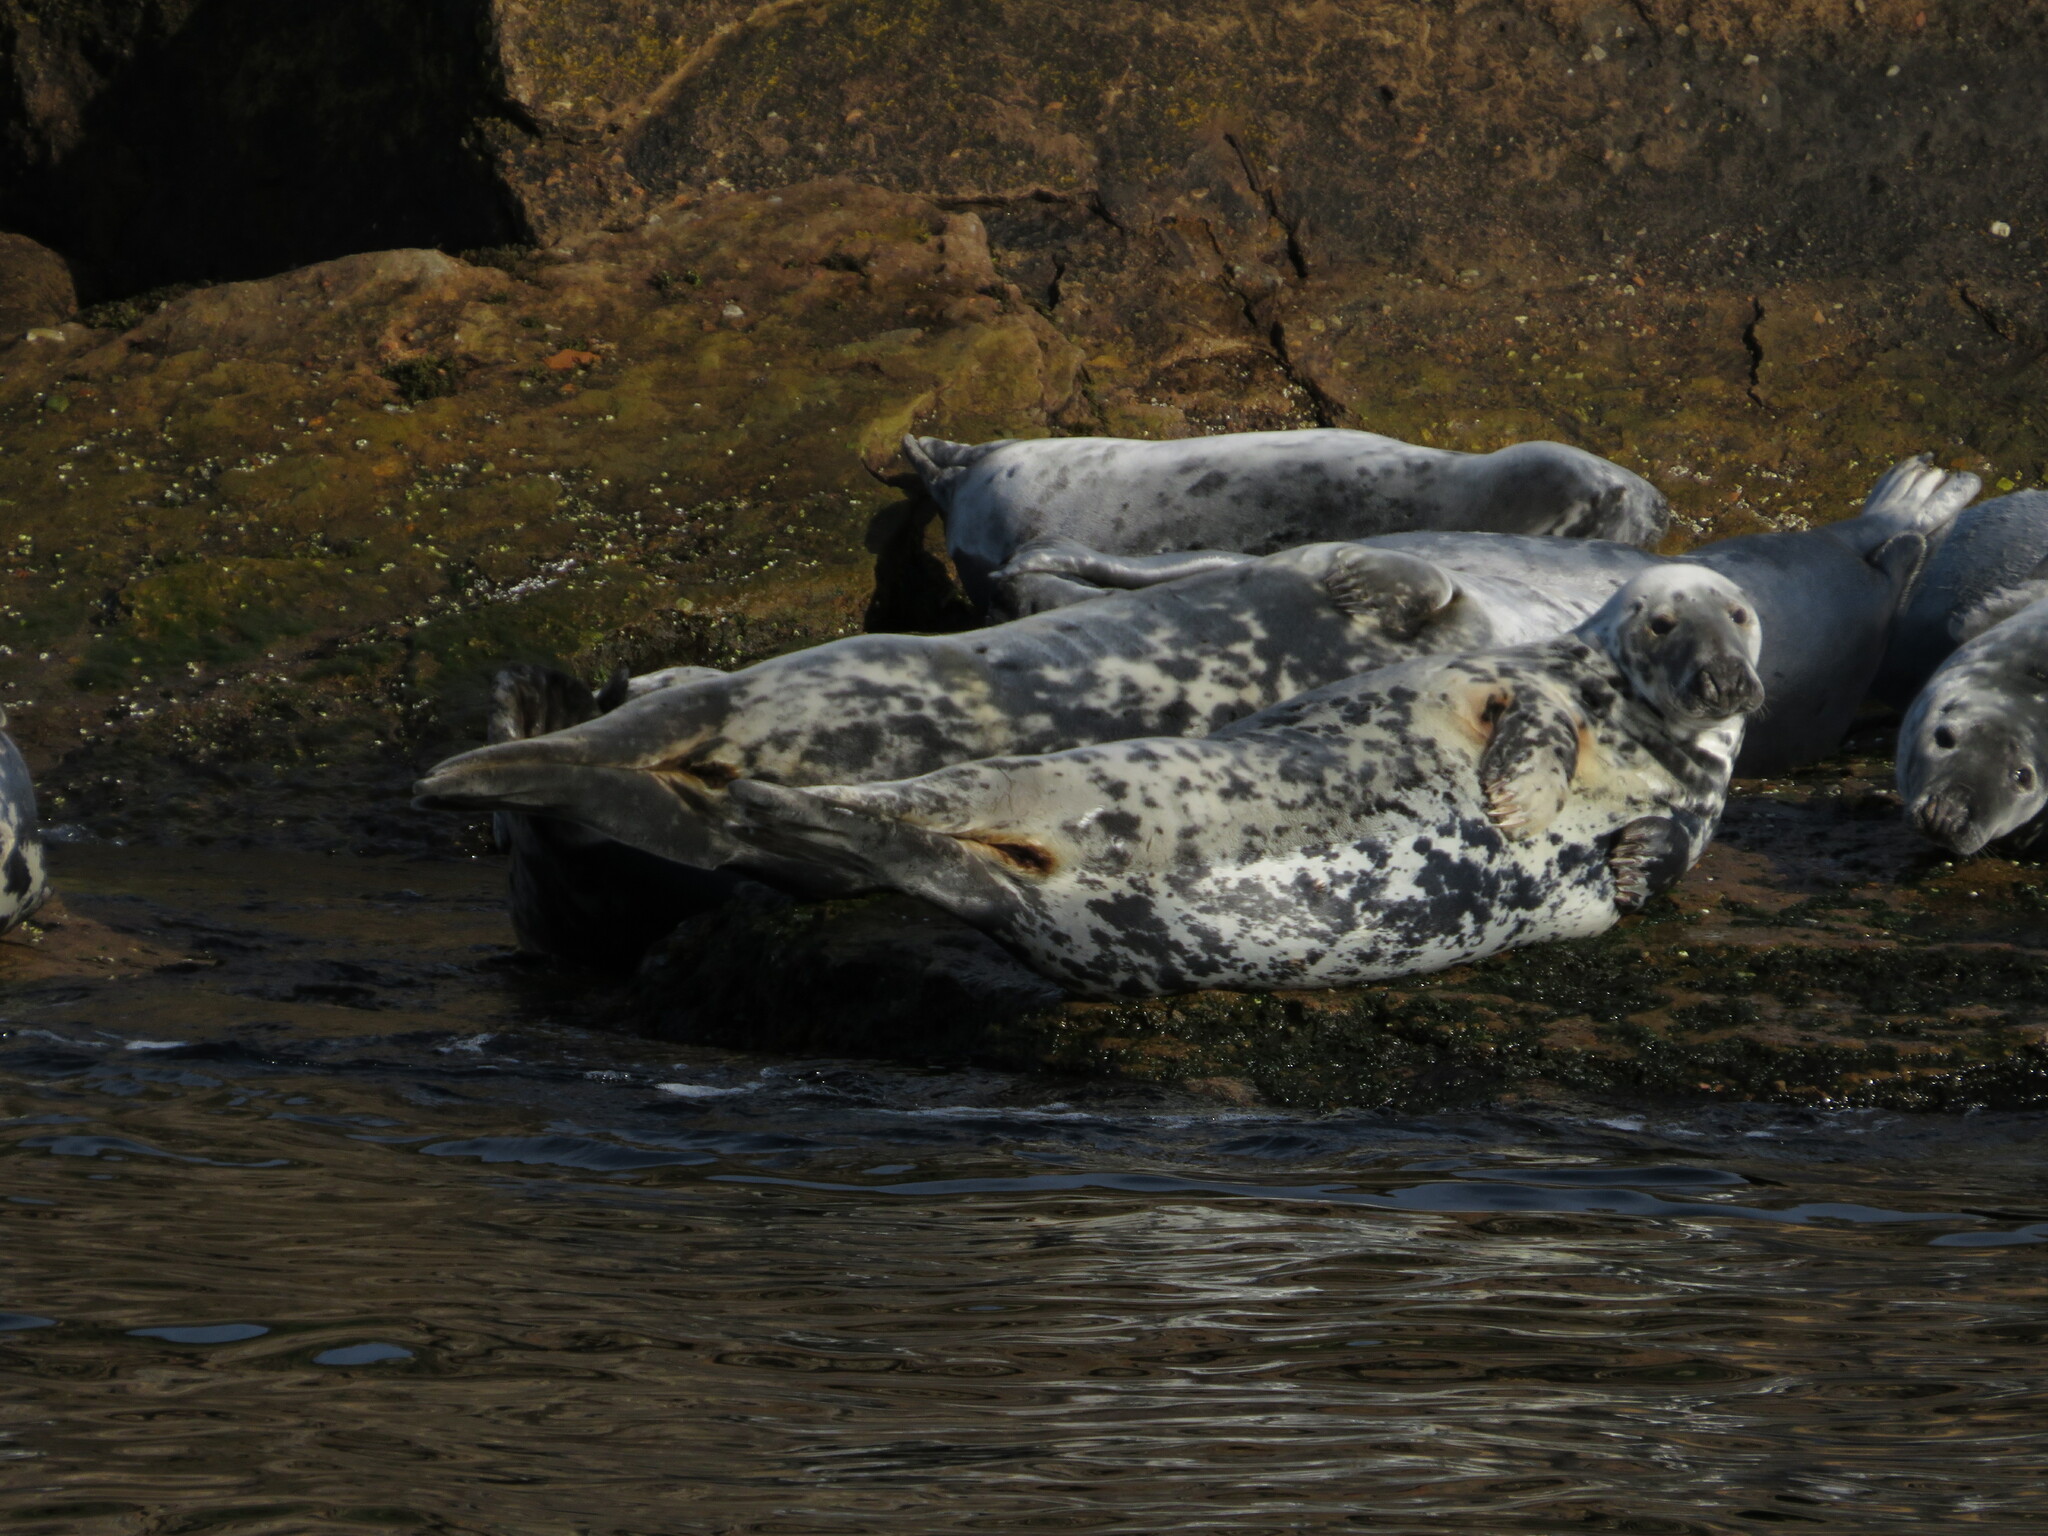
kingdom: Animalia
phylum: Chordata
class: Mammalia
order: Carnivora
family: Phocidae
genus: Halichoerus
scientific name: Halichoerus grypus
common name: Grey seal
